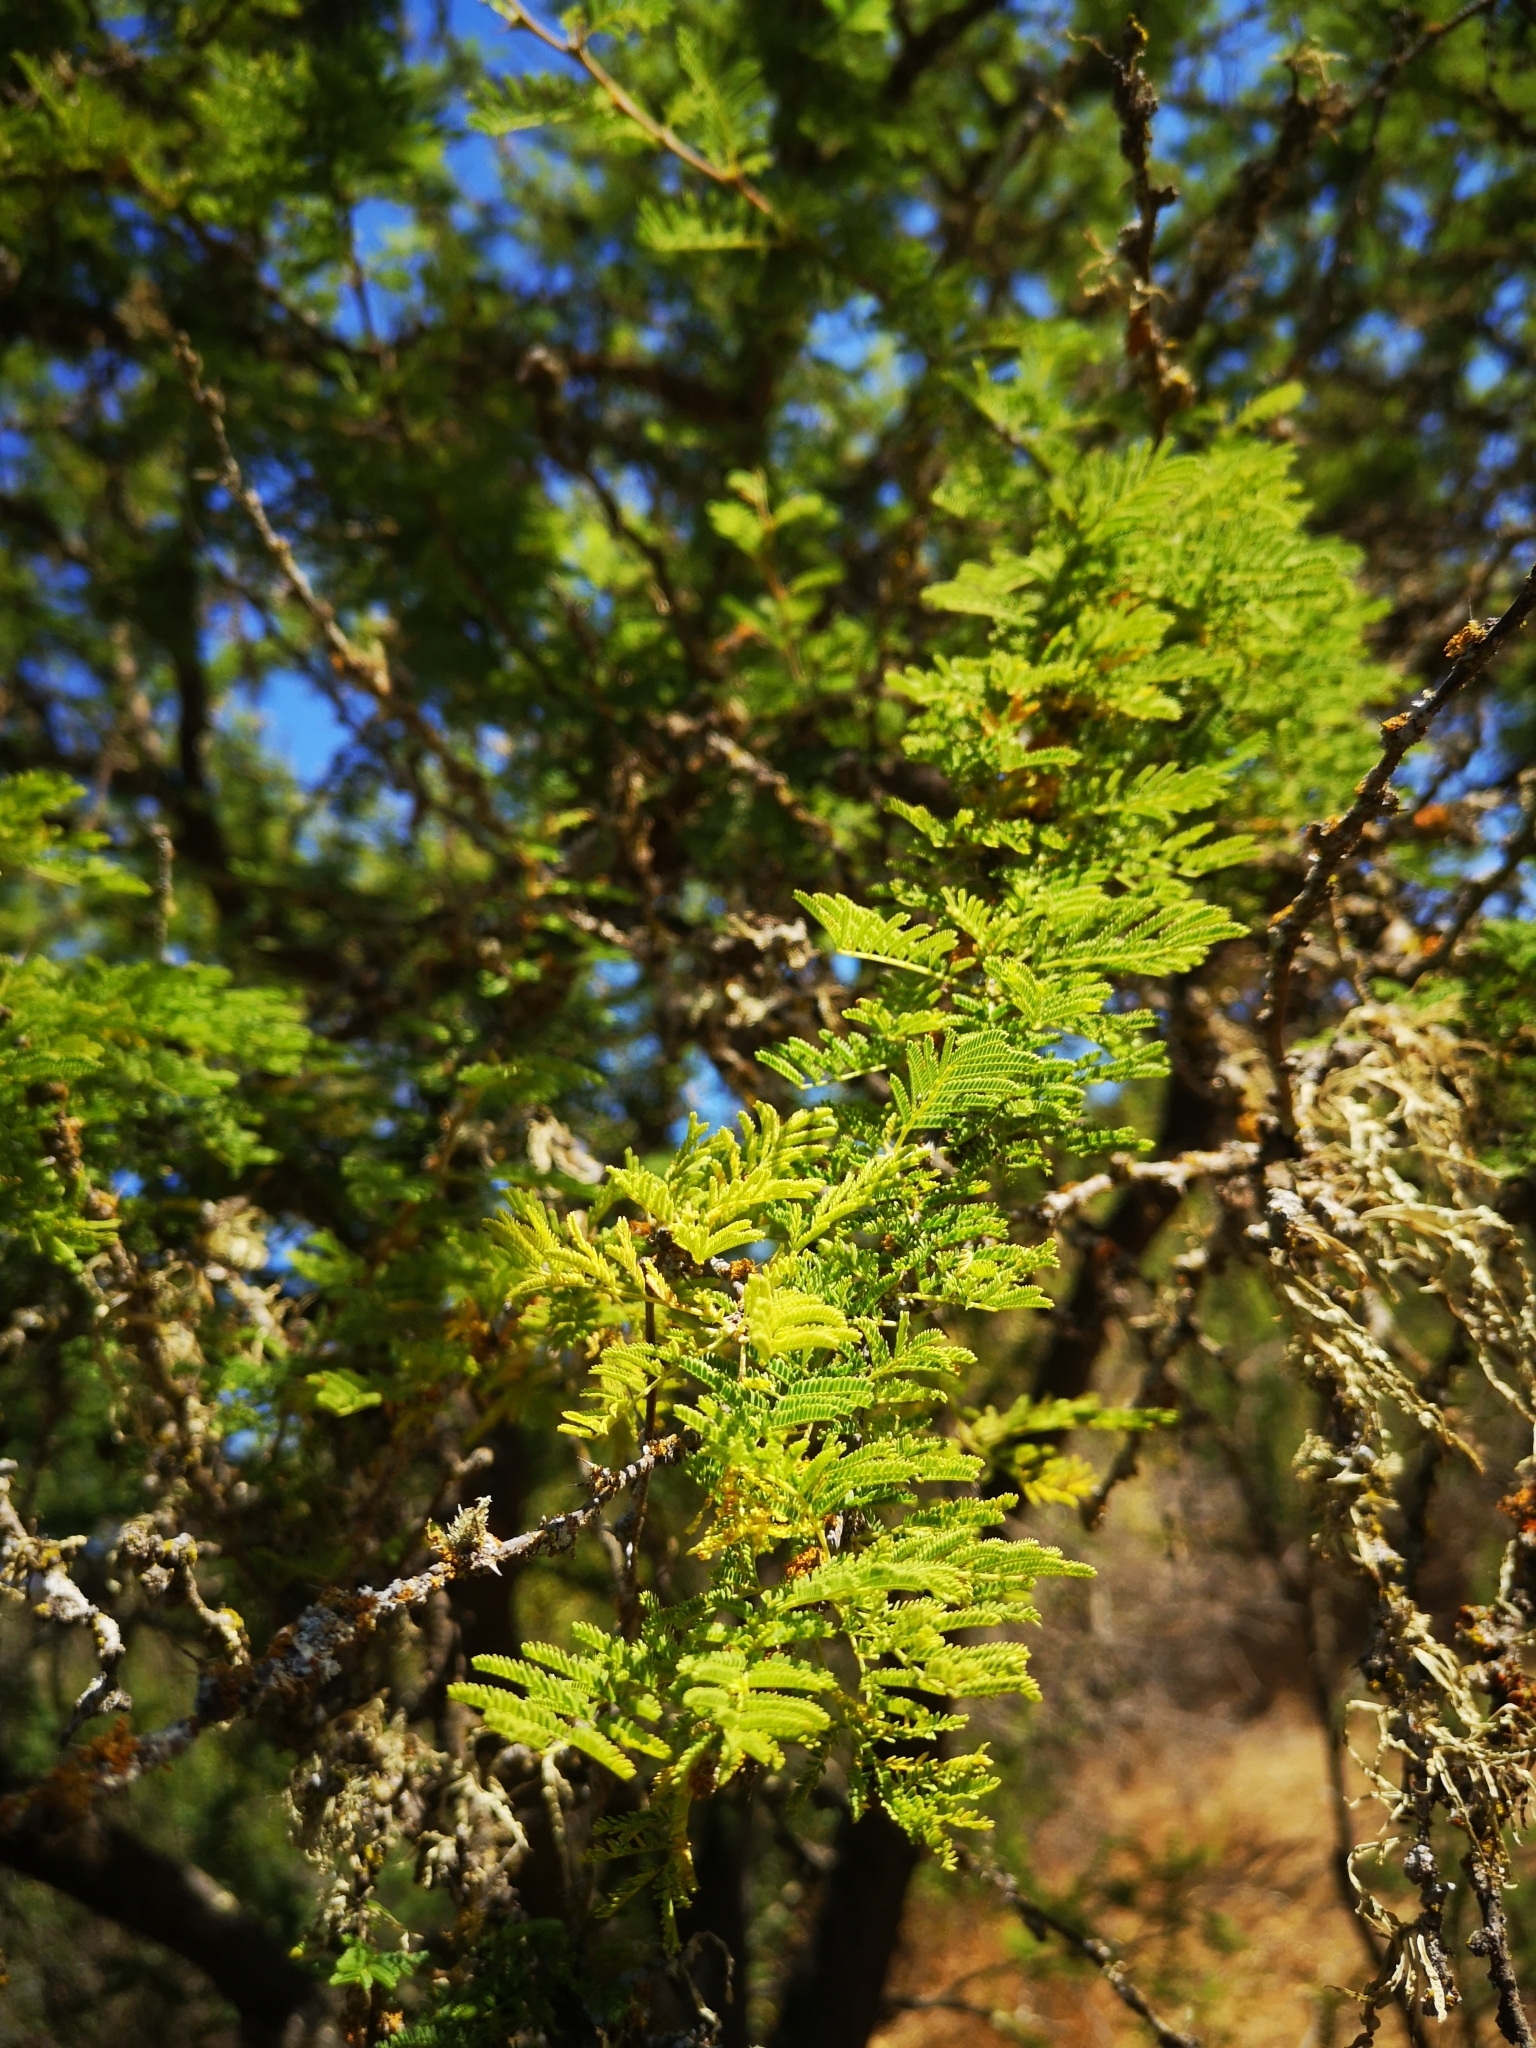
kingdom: Plantae
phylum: Tracheophyta
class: Magnoliopsida
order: Fabales
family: Fabaceae
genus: Vachellia
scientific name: Vachellia caven
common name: Roman cassie
